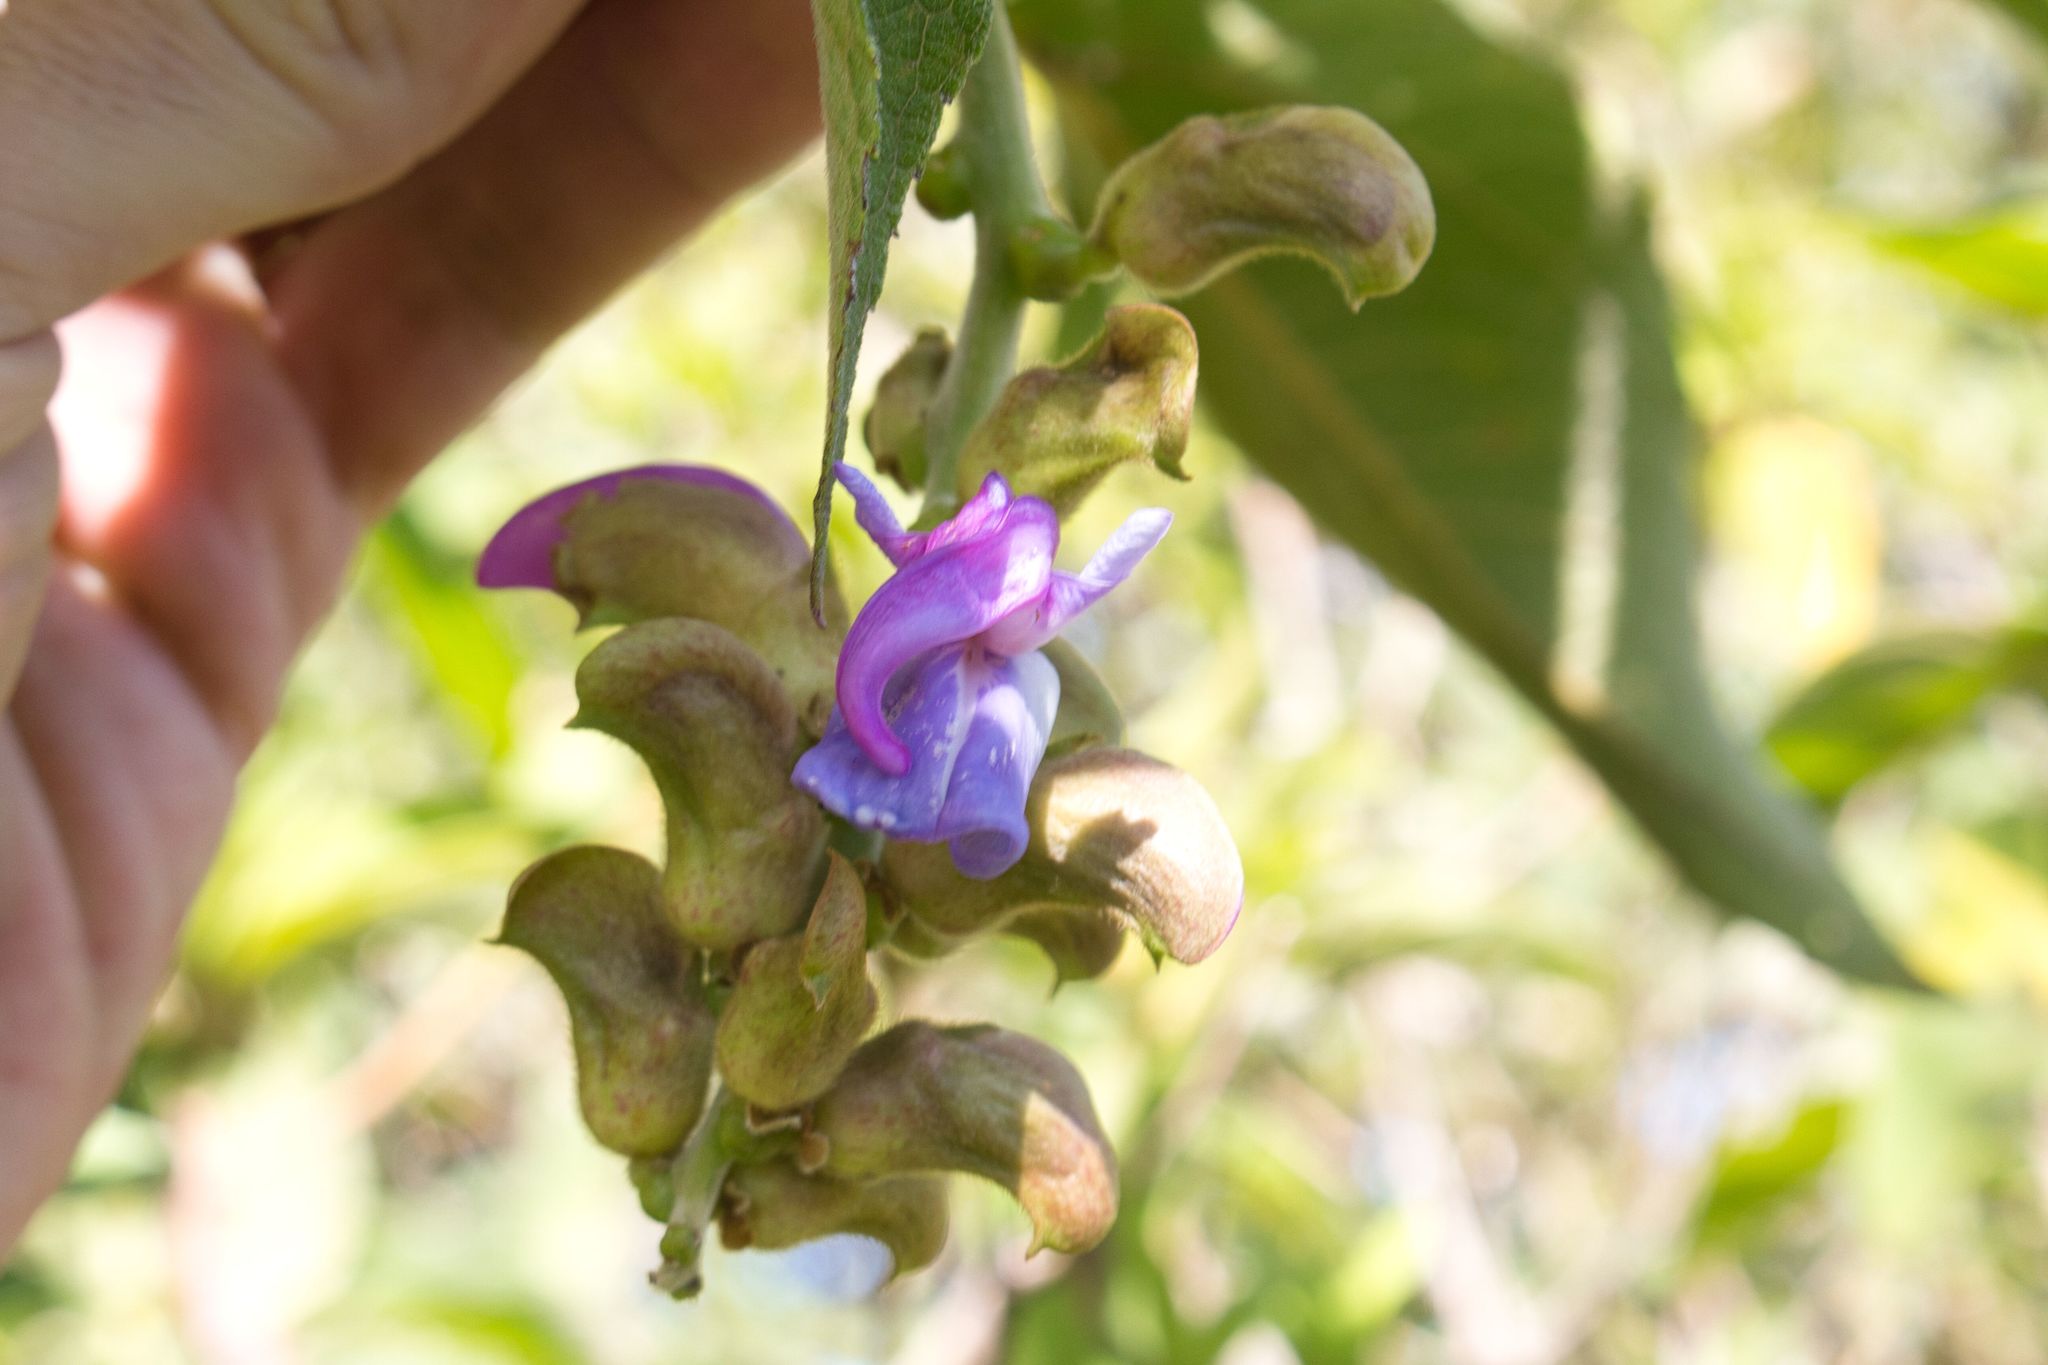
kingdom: Plantae
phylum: Tracheophyta
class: Magnoliopsida
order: Fabales
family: Fabaceae
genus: Canavalia
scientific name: Canavalia villosa
